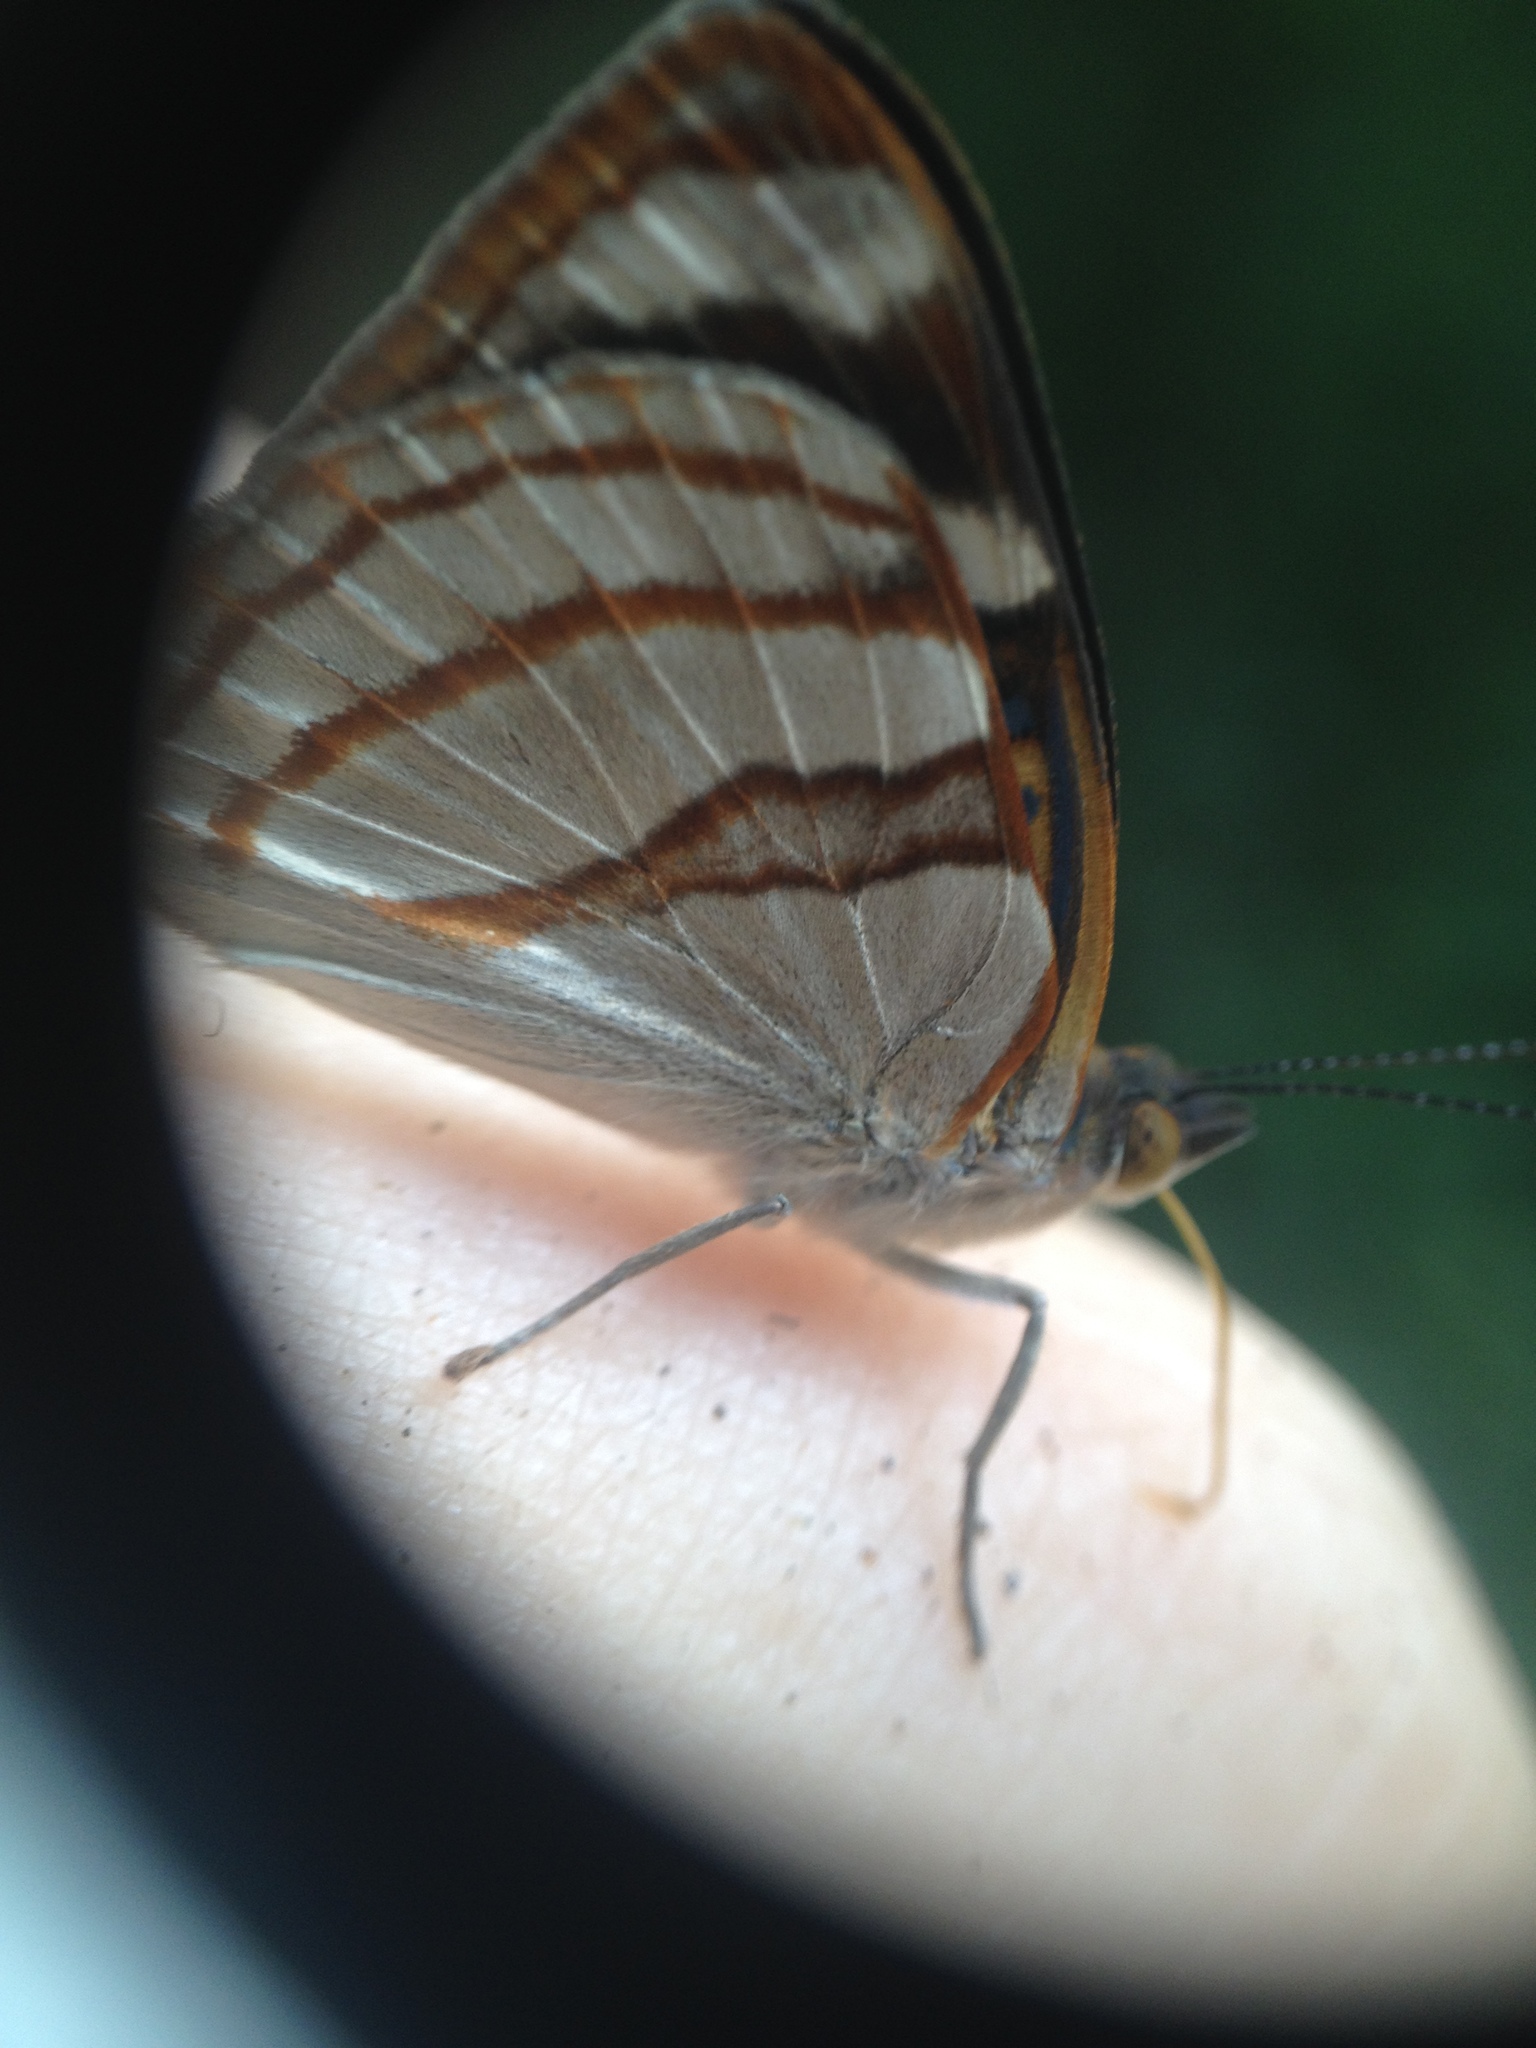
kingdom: Animalia
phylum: Arthropoda
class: Insecta
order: Lepidoptera
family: Nymphalidae
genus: Dynamine
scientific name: Dynamine tithia
